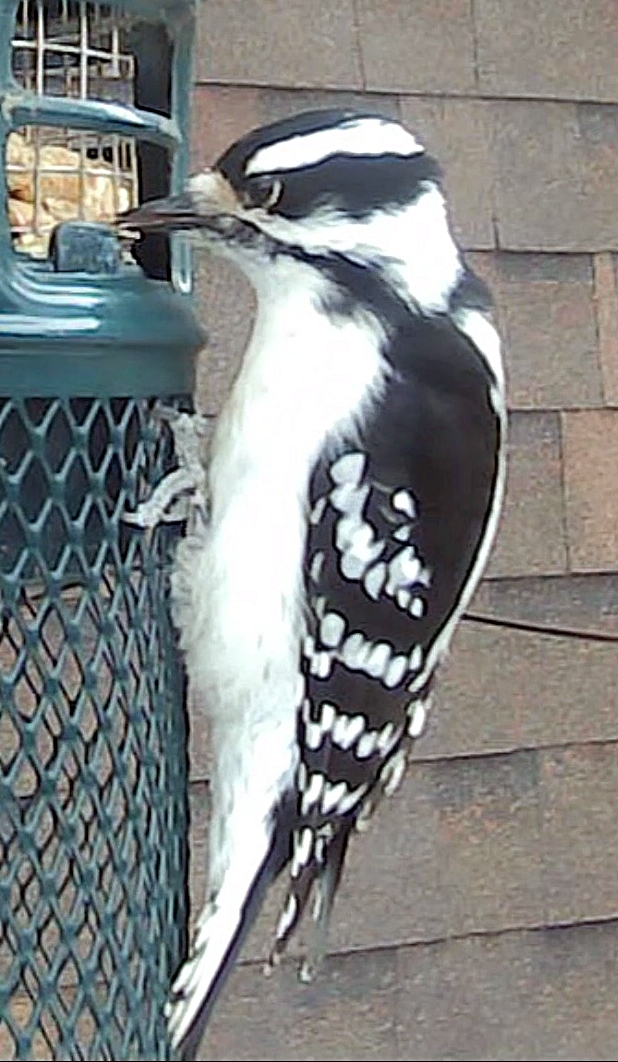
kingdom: Animalia
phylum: Chordata
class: Aves
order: Piciformes
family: Picidae
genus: Dryobates
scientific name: Dryobates pubescens
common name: Downy woodpecker
